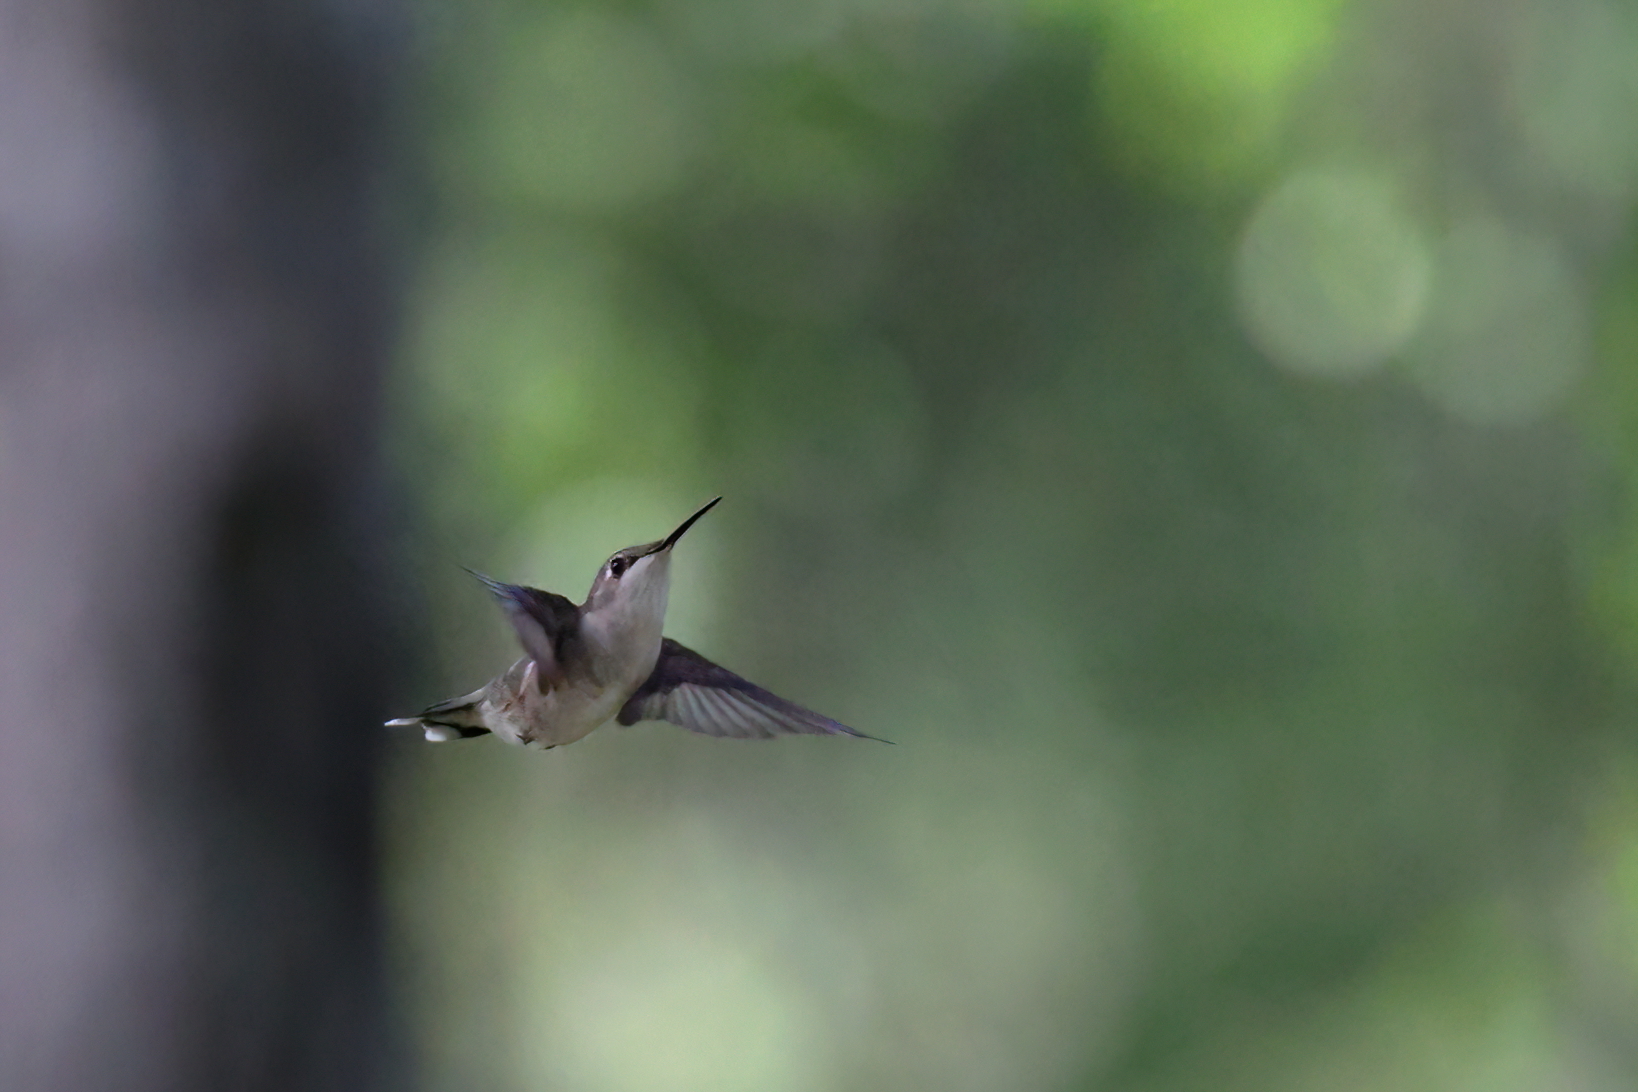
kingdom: Animalia
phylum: Chordata
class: Aves
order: Apodiformes
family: Trochilidae
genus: Archilochus
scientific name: Archilochus colubris
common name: Ruby-throated hummingbird
